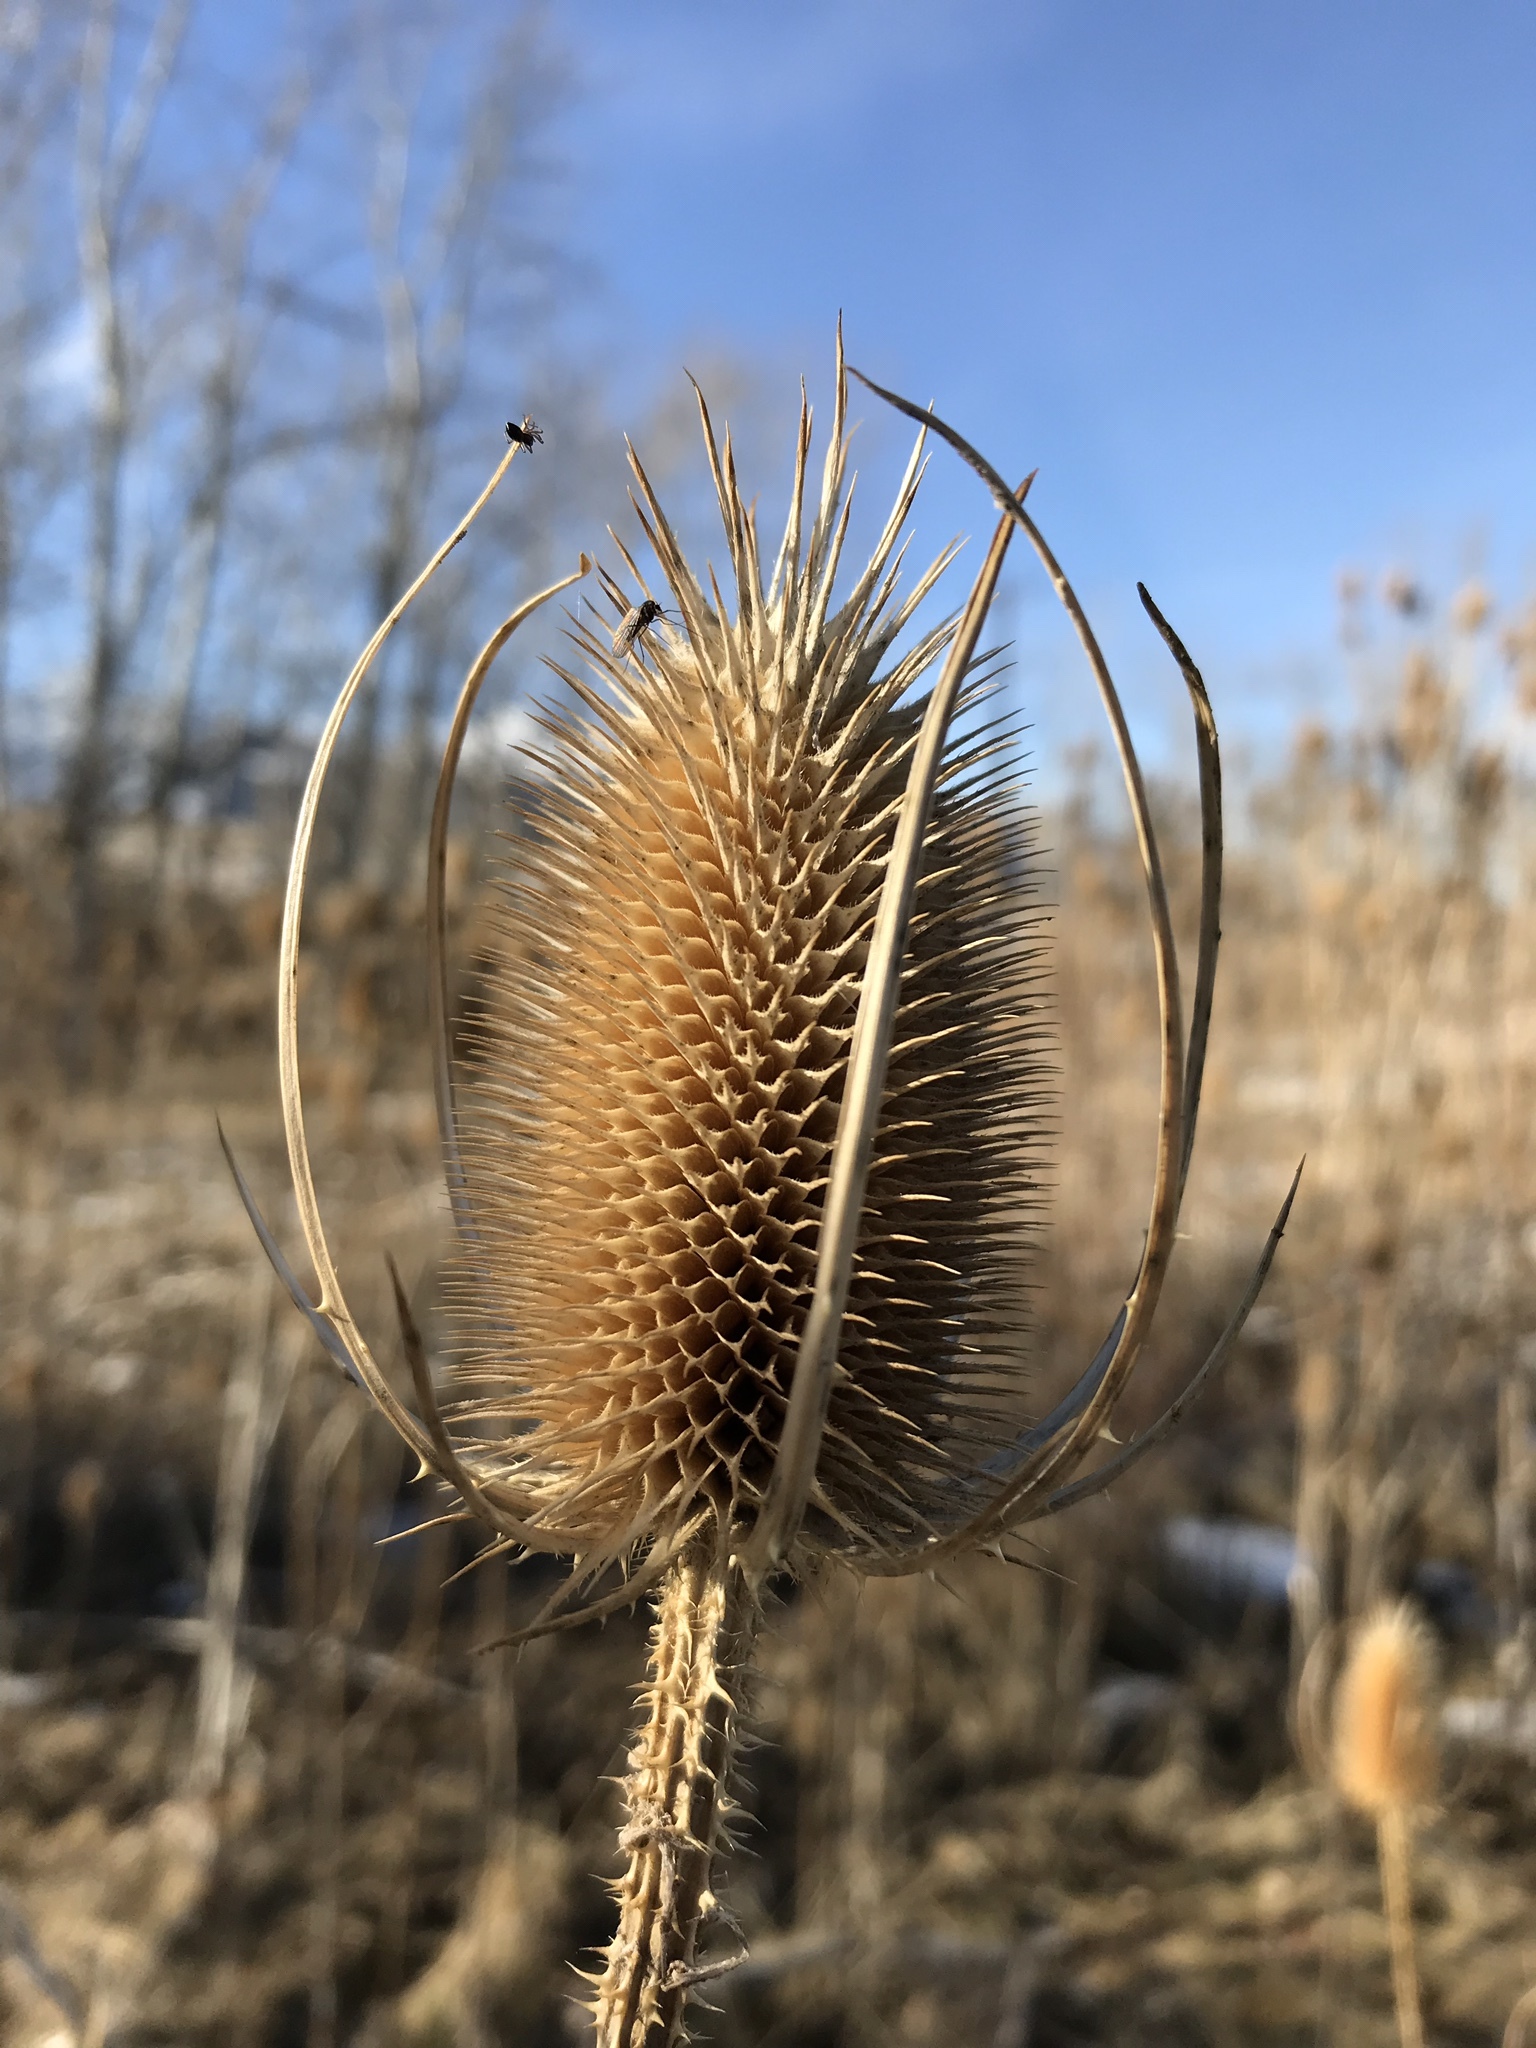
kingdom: Plantae
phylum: Tracheophyta
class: Magnoliopsida
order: Dipsacales
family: Caprifoliaceae
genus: Dipsacus
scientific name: Dipsacus fullonum
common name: Teasel
